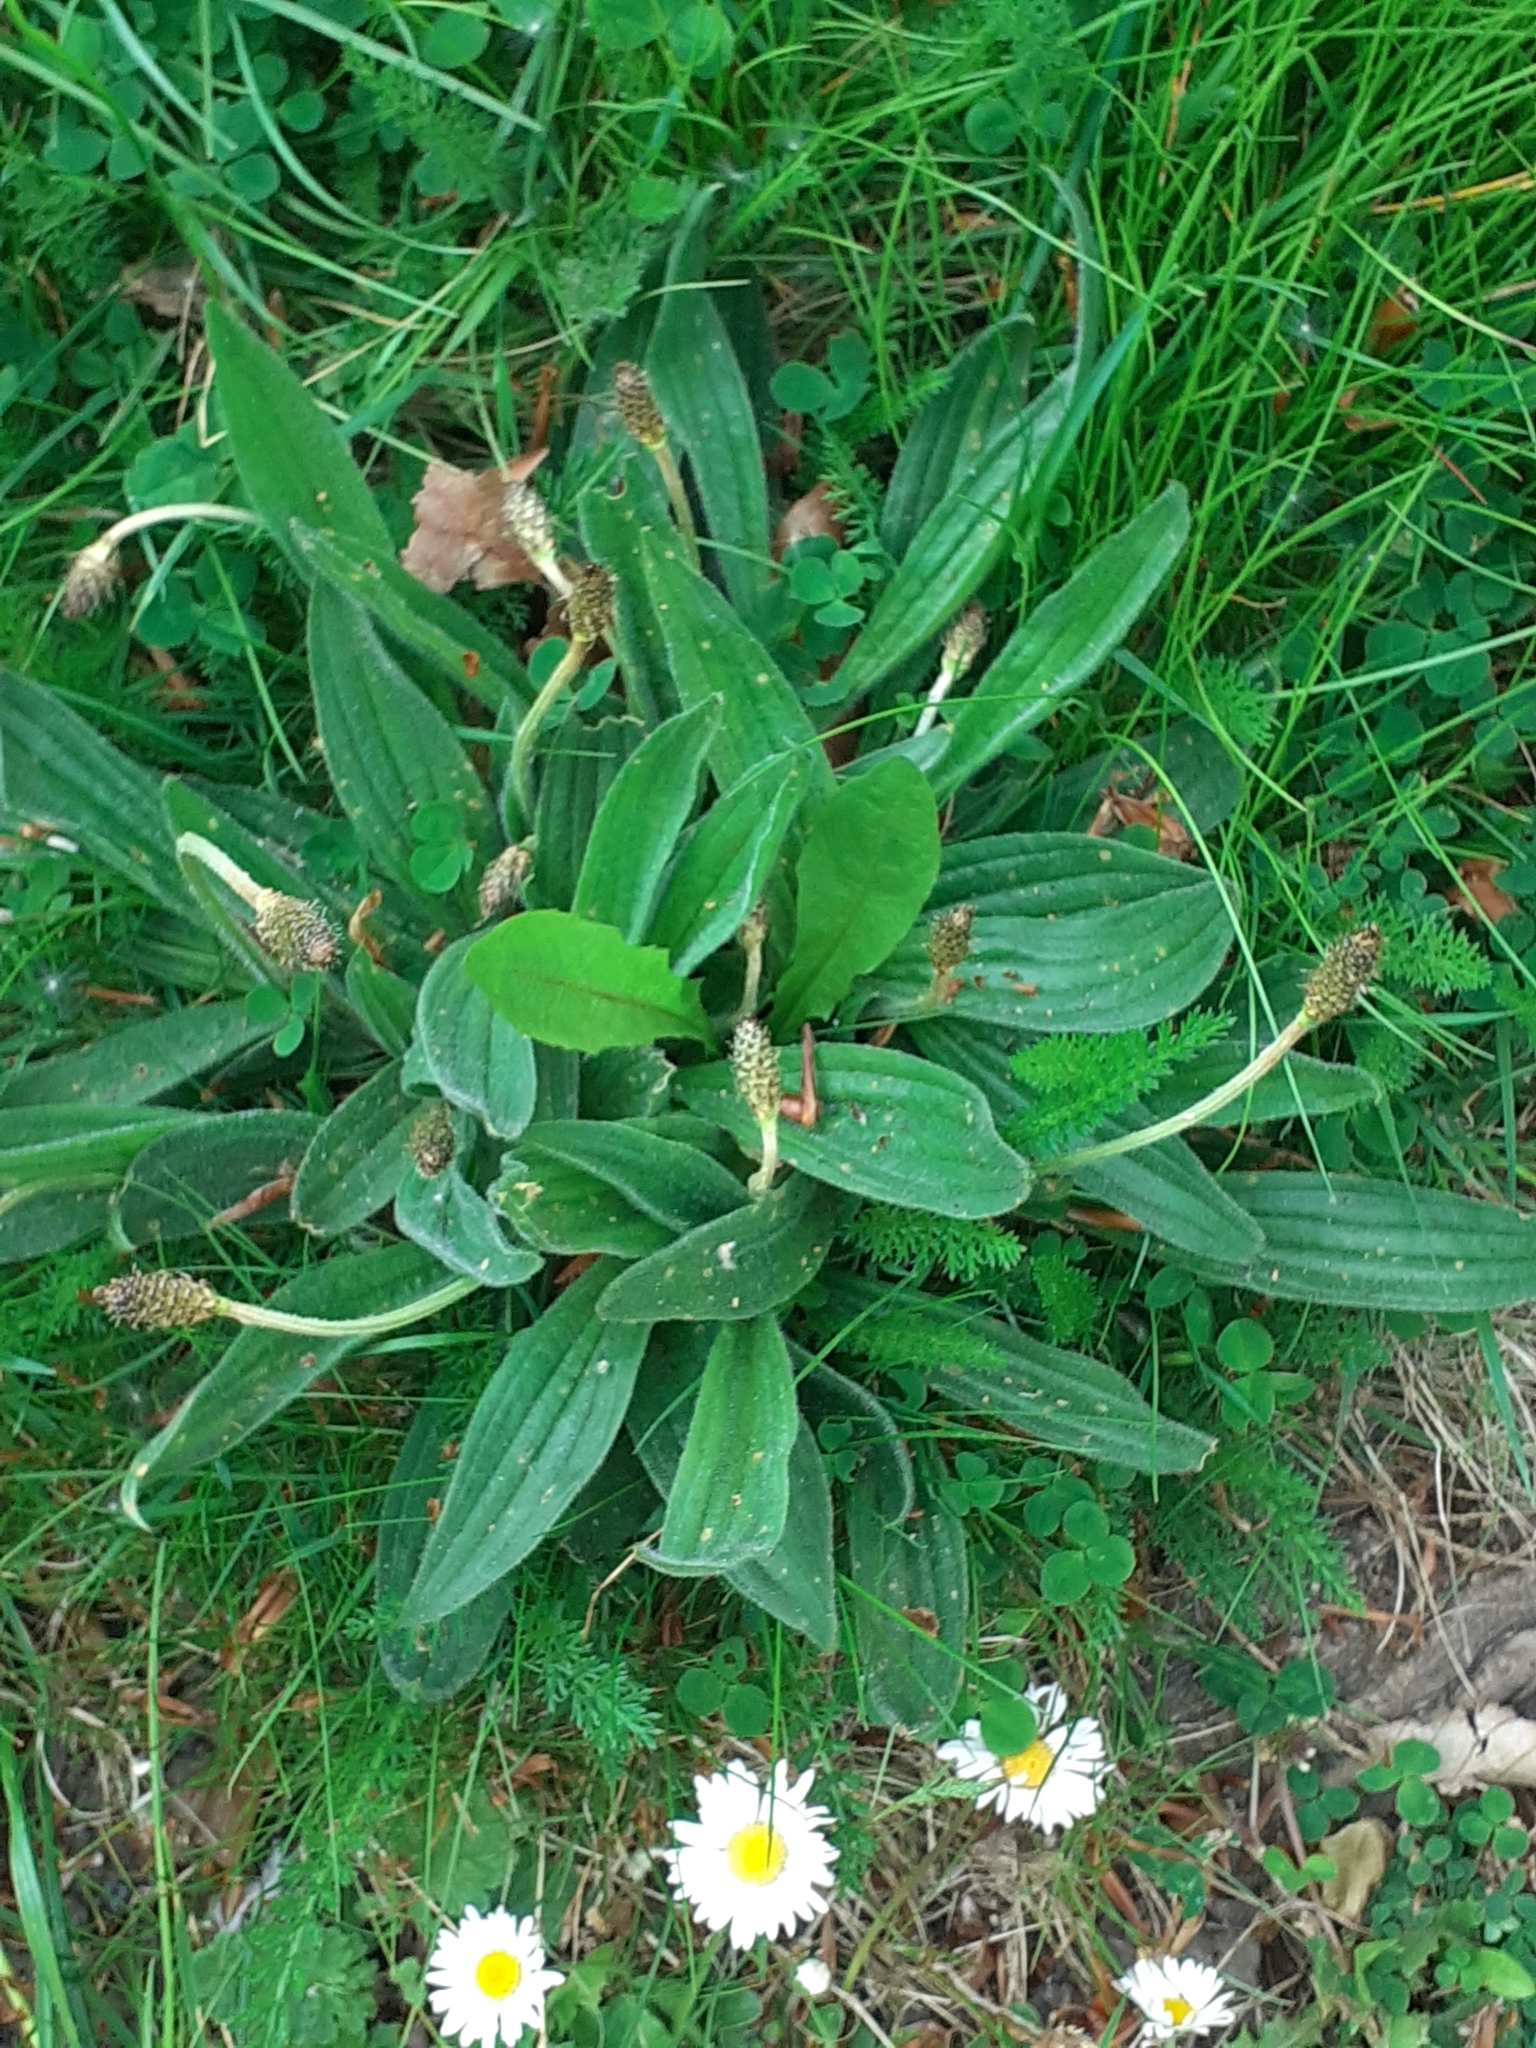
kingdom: Plantae
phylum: Tracheophyta
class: Magnoliopsida
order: Lamiales
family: Plantaginaceae
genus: Plantago
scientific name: Plantago lanceolata
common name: Ribwort plantain
